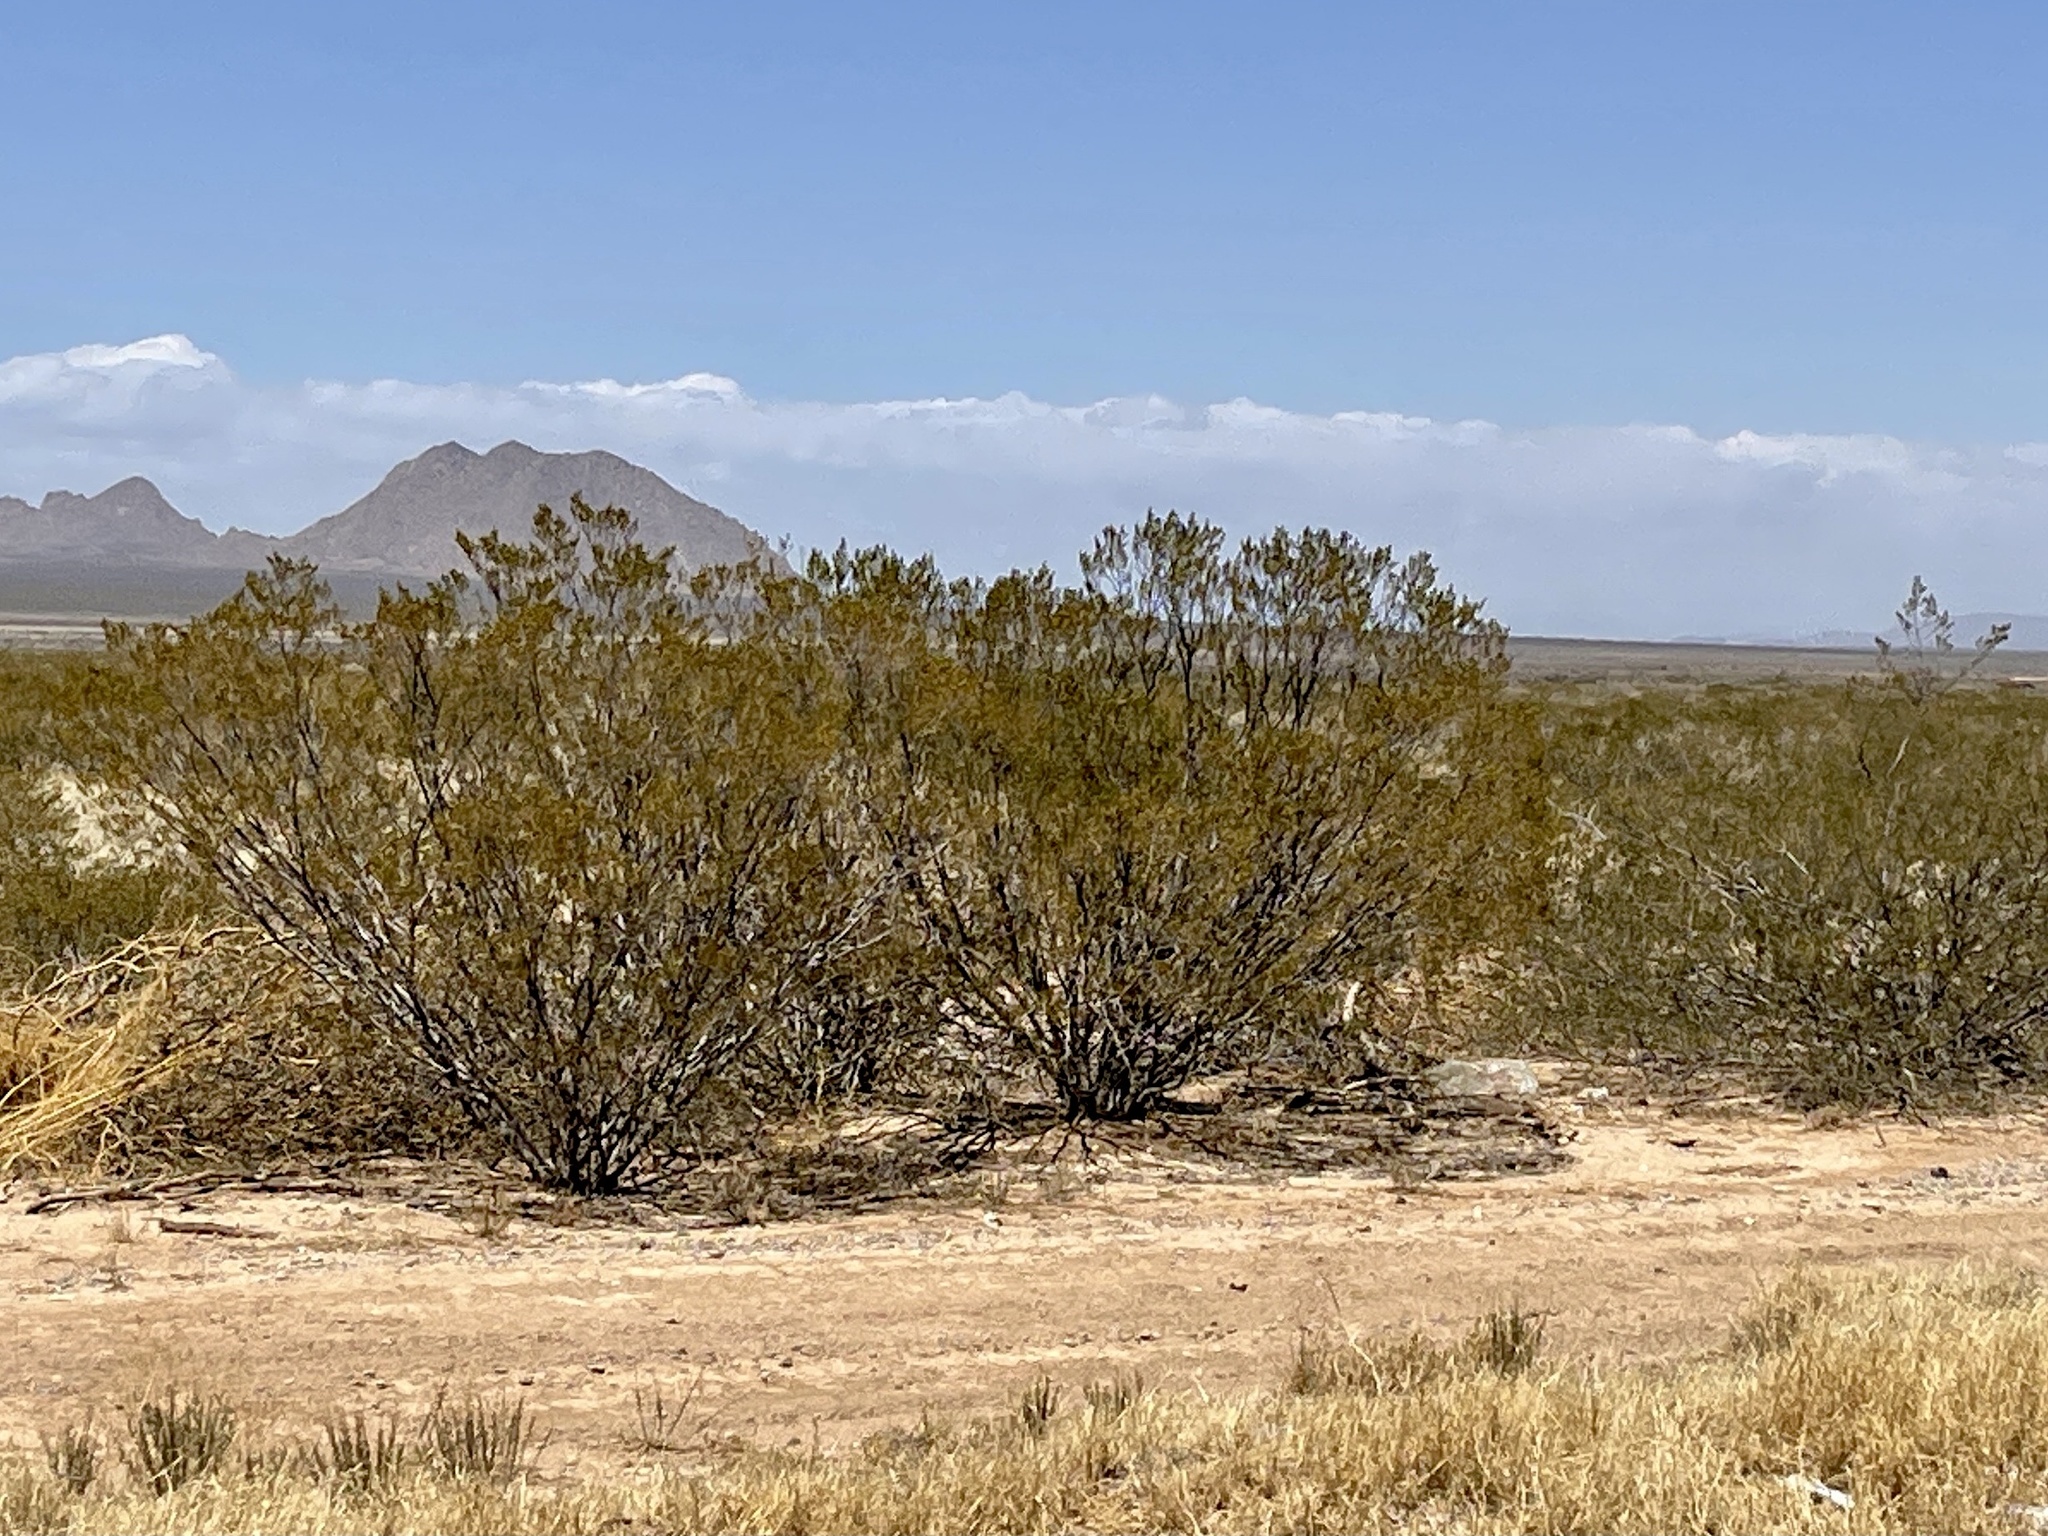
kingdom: Plantae
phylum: Tracheophyta
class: Magnoliopsida
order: Zygophyllales
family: Zygophyllaceae
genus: Larrea
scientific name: Larrea tridentata
